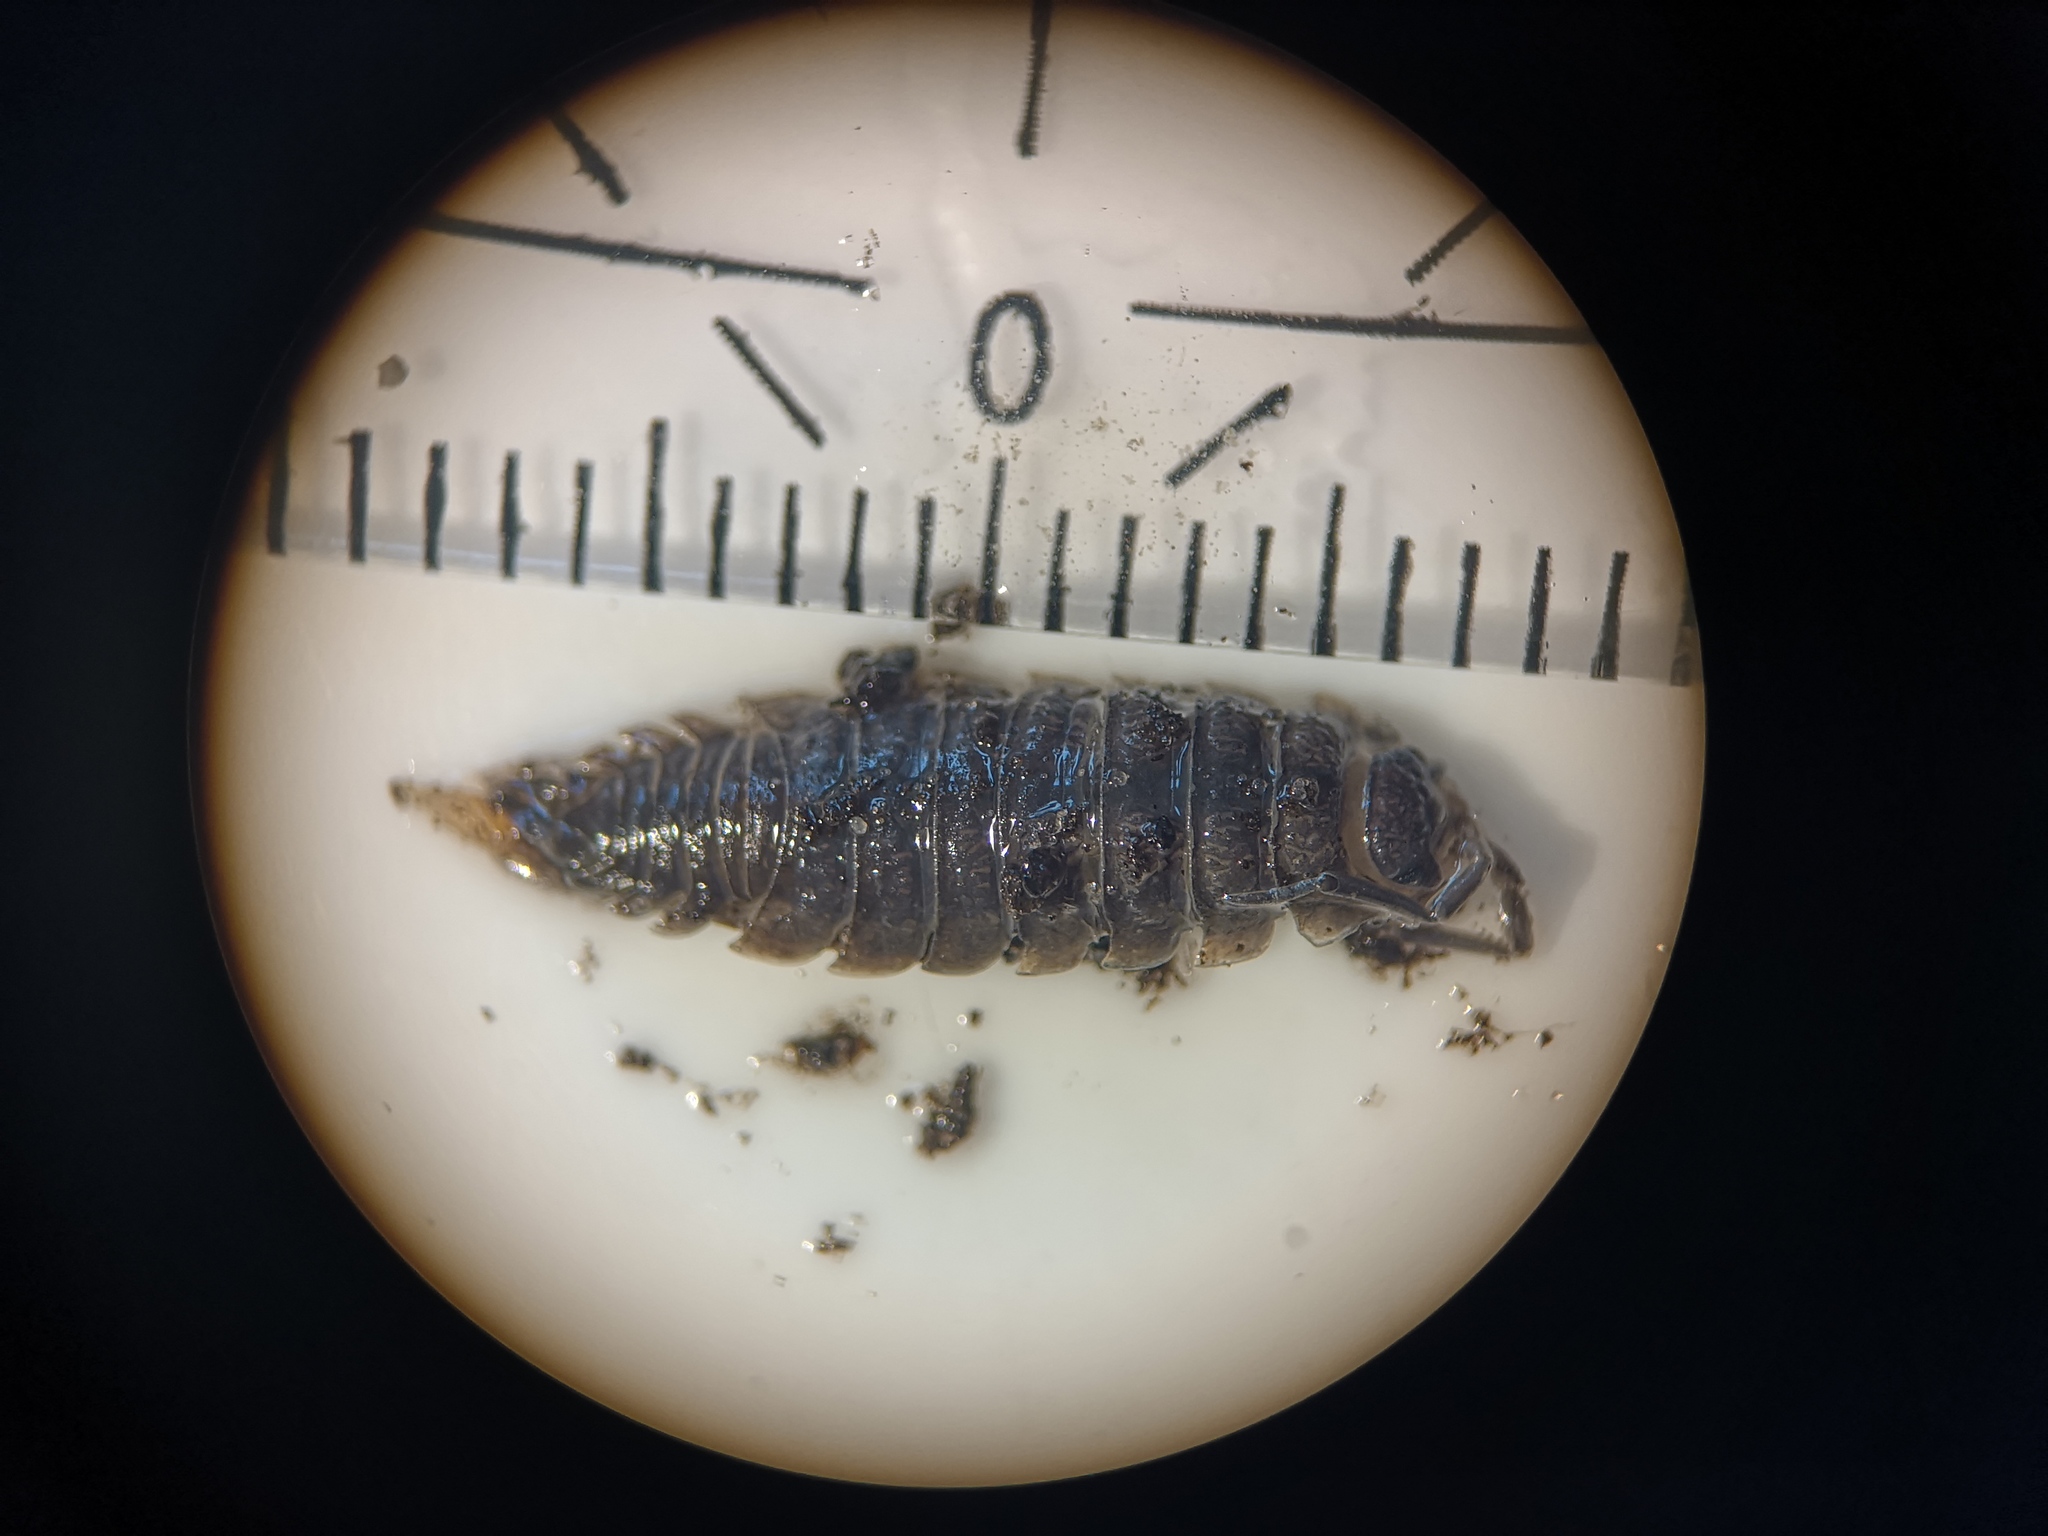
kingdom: Animalia
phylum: Arthropoda
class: Malacostraca
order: Isopoda
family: Porcellionidae
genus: Porcellio
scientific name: Porcellio scaber
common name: Common rough woodlouse
